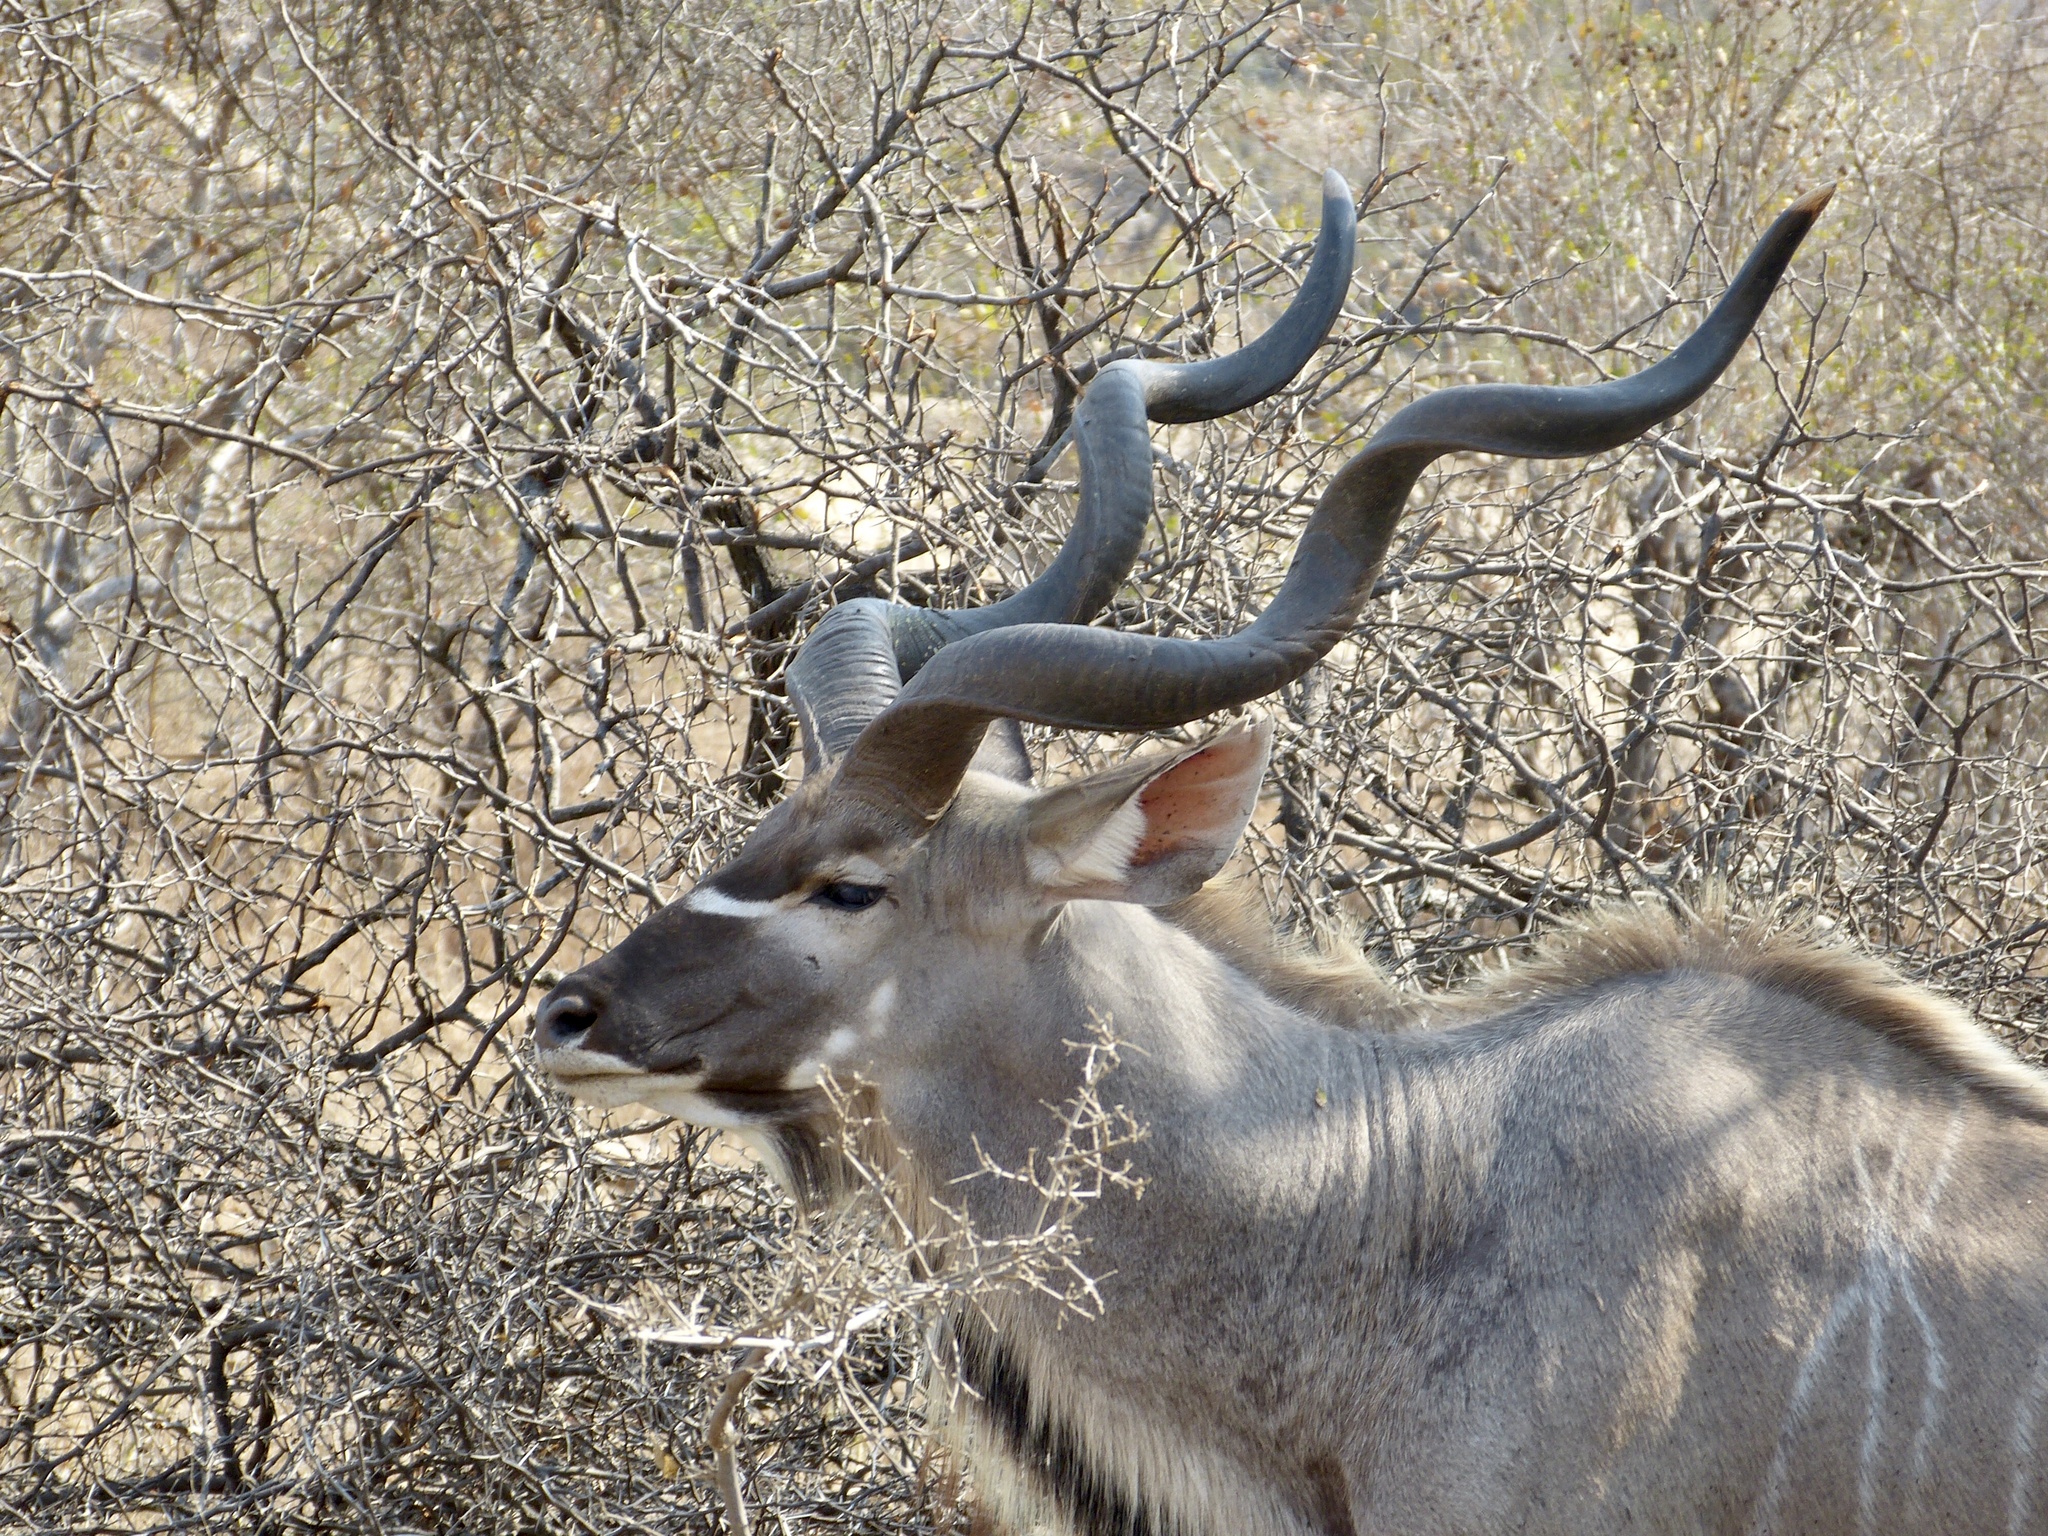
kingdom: Animalia
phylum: Chordata
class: Mammalia
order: Artiodactyla
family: Bovidae
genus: Tragelaphus
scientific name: Tragelaphus strepsiceros
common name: Greater kudu
